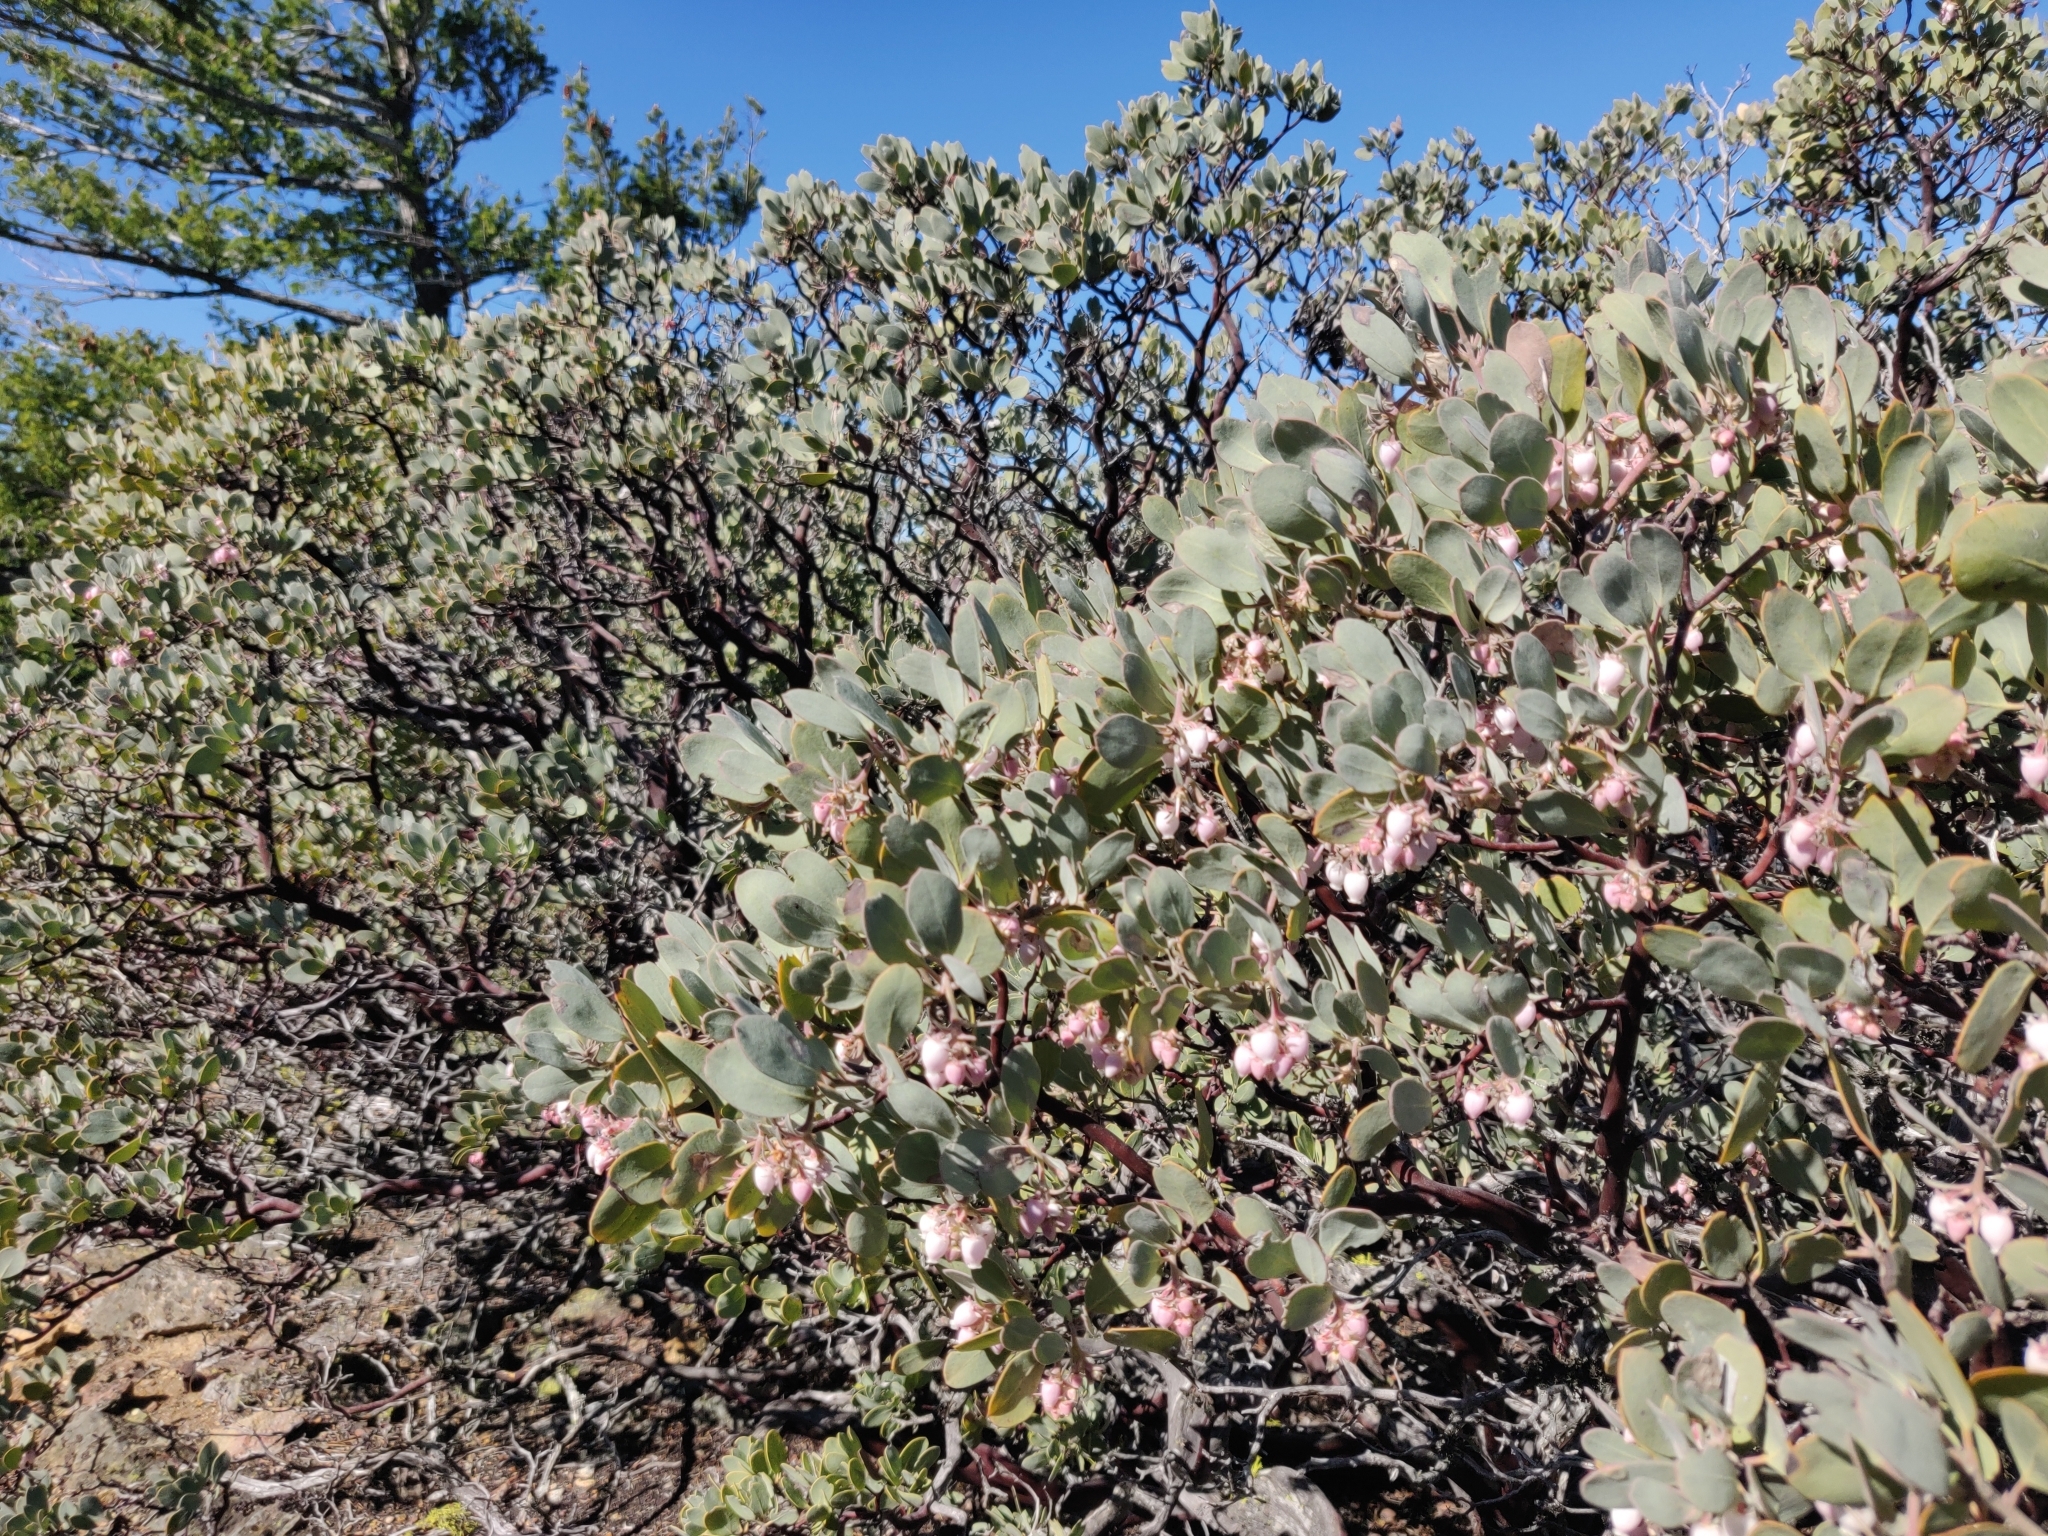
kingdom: Plantae
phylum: Tracheophyta
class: Magnoliopsida
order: Ericales
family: Ericaceae
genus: Arctostaphylos
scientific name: Arctostaphylos canescens
